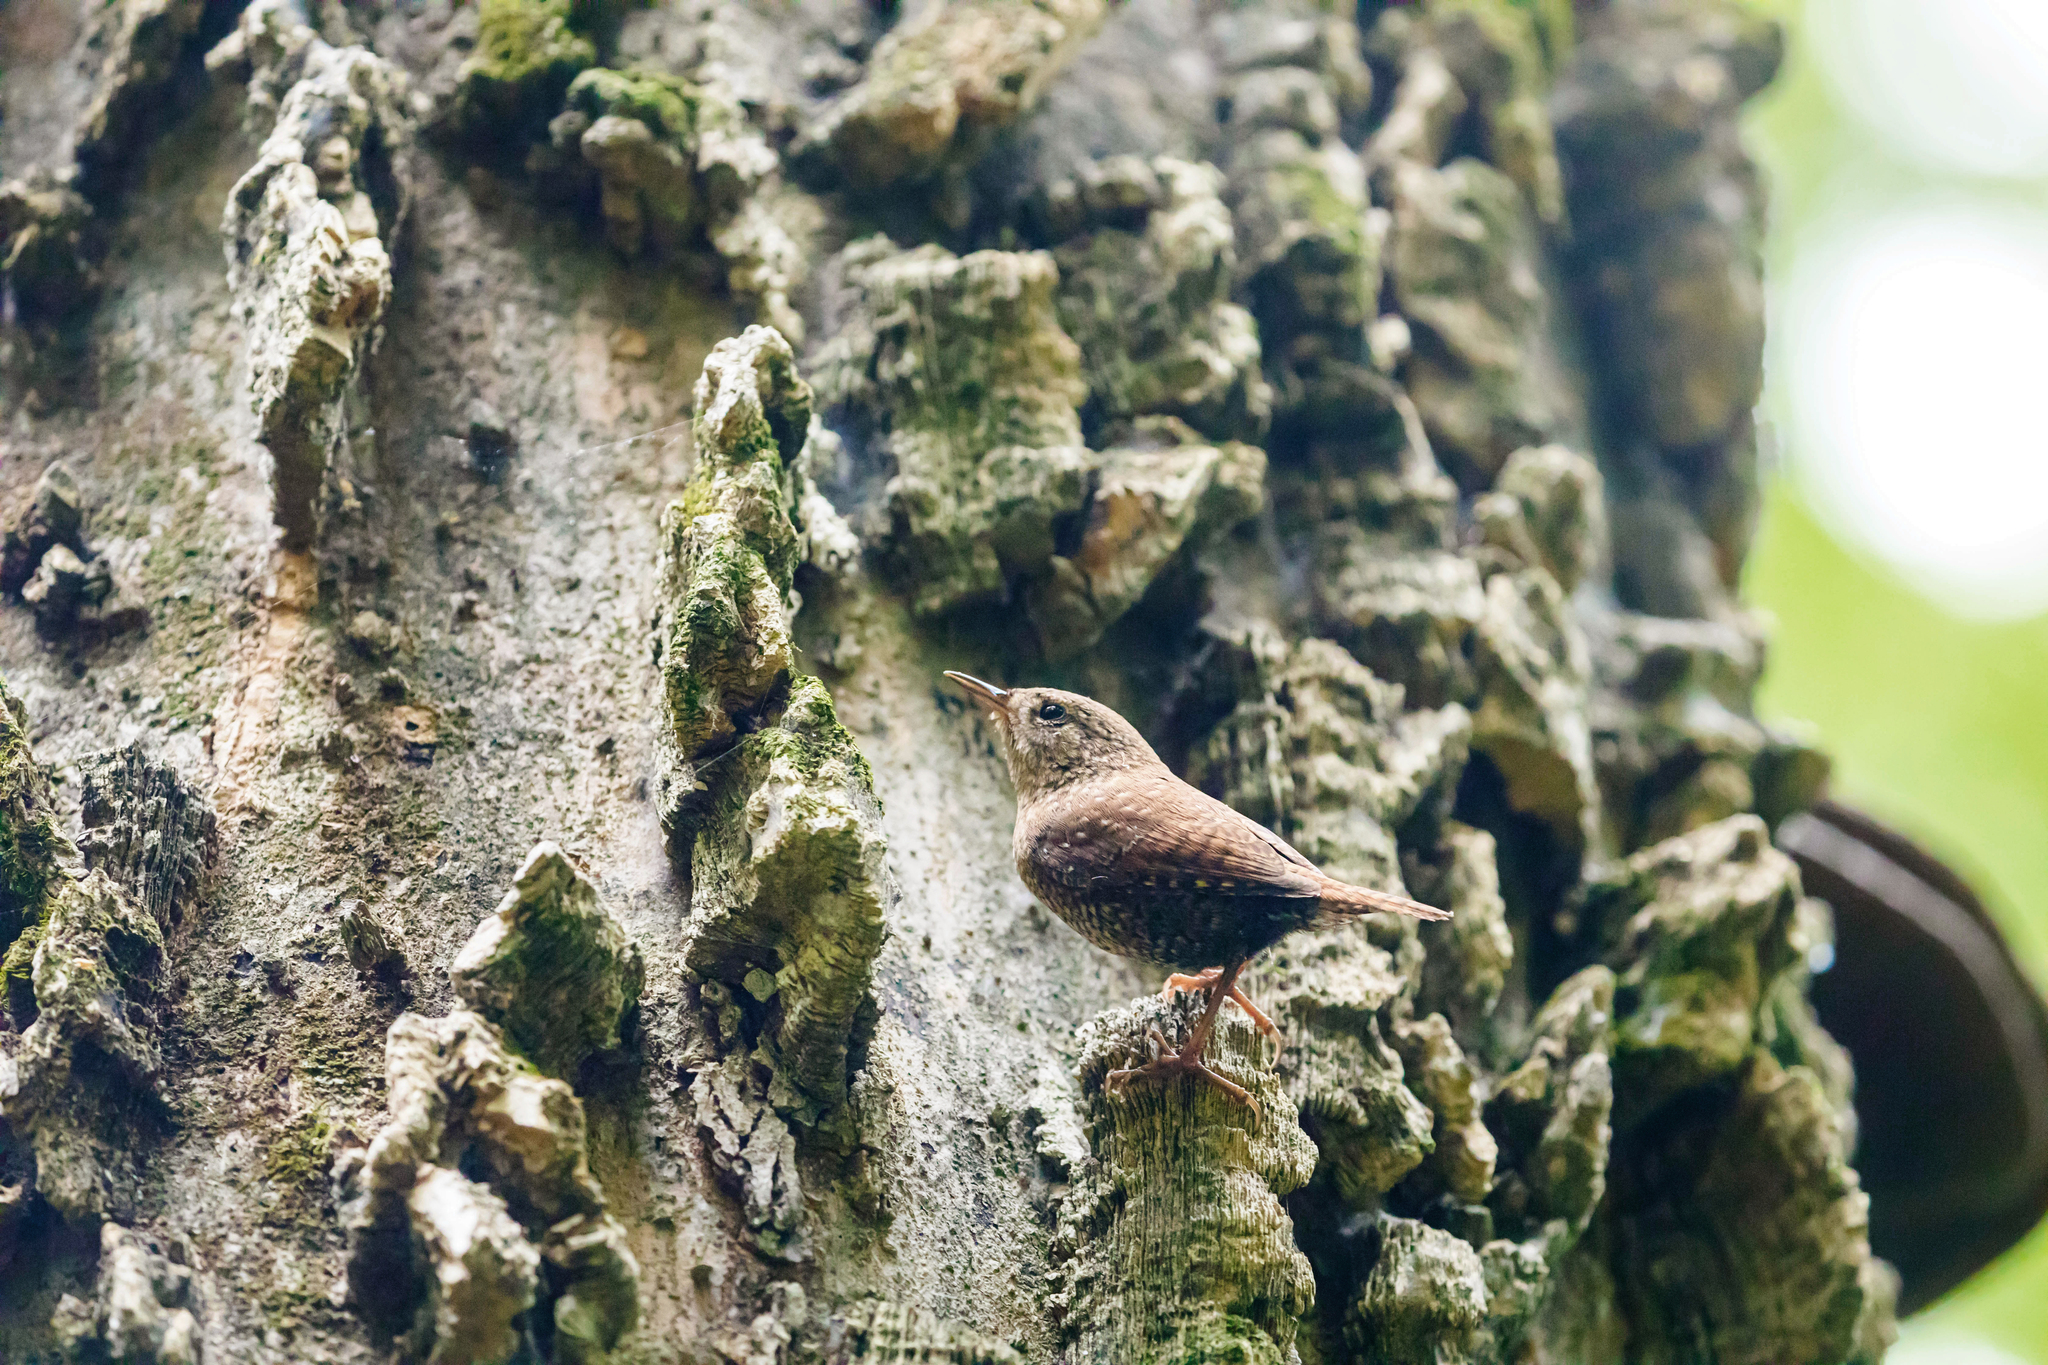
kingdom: Animalia
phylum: Chordata
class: Aves
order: Passeriformes
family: Troglodytidae
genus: Troglodytes
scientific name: Troglodytes hiemalis
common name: Winter wren
